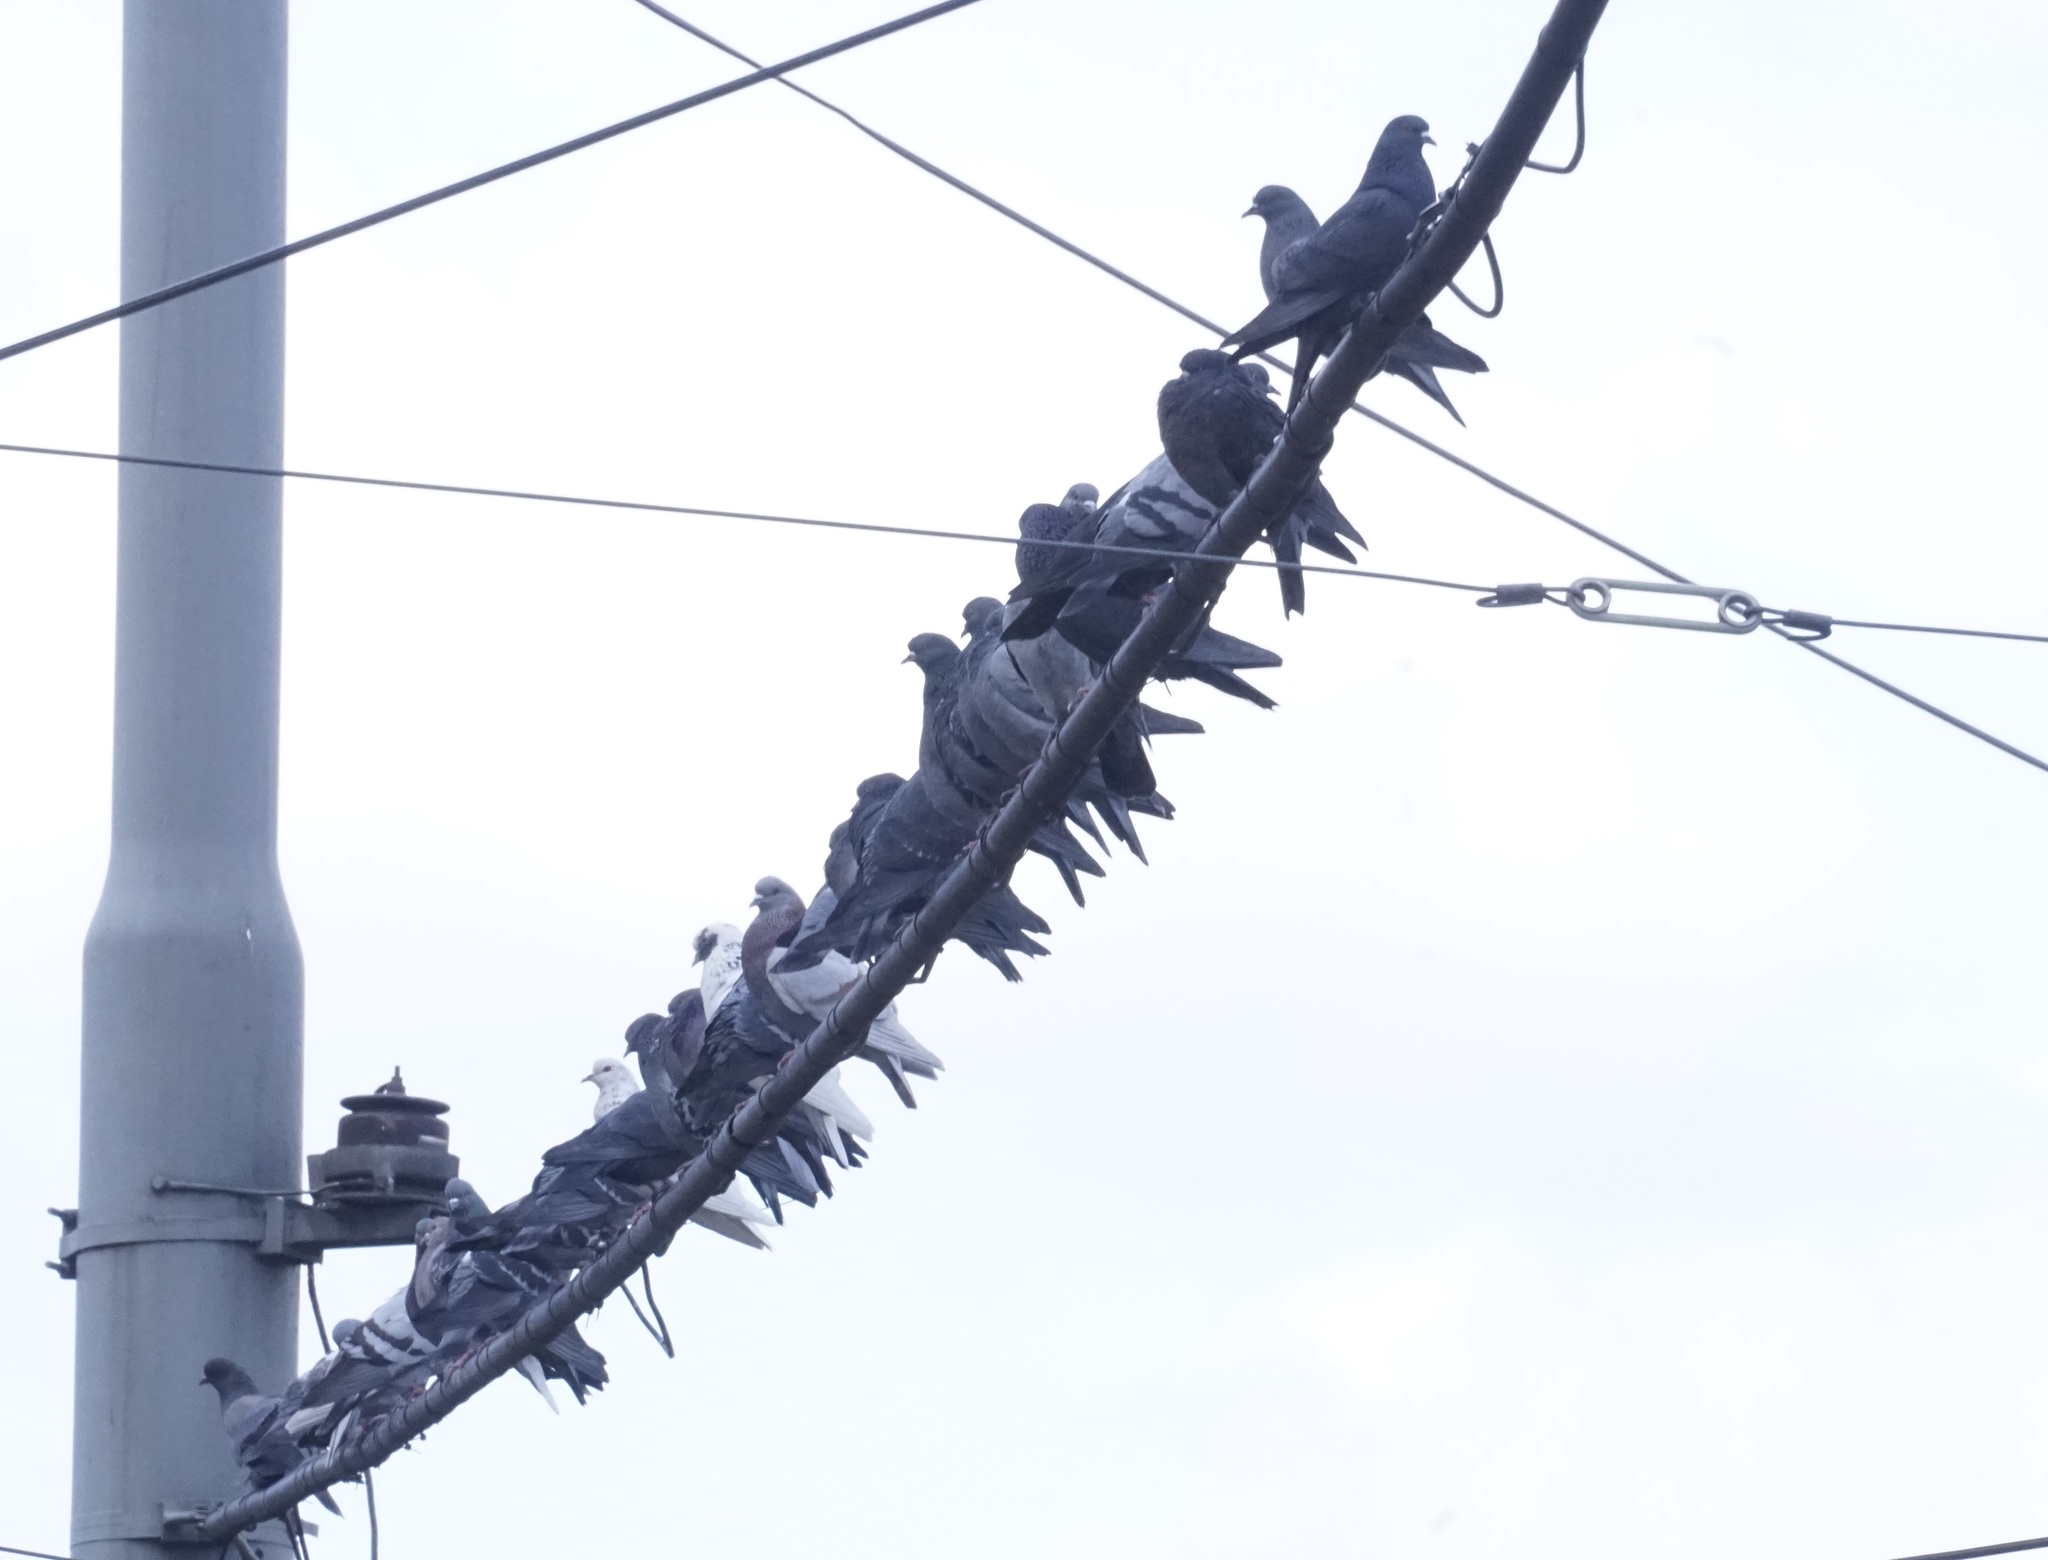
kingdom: Animalia
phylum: Chordata
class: Aves
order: Columbiformes
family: Columbidae
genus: Columba
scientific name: Columba livia
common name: Rock pigeon
